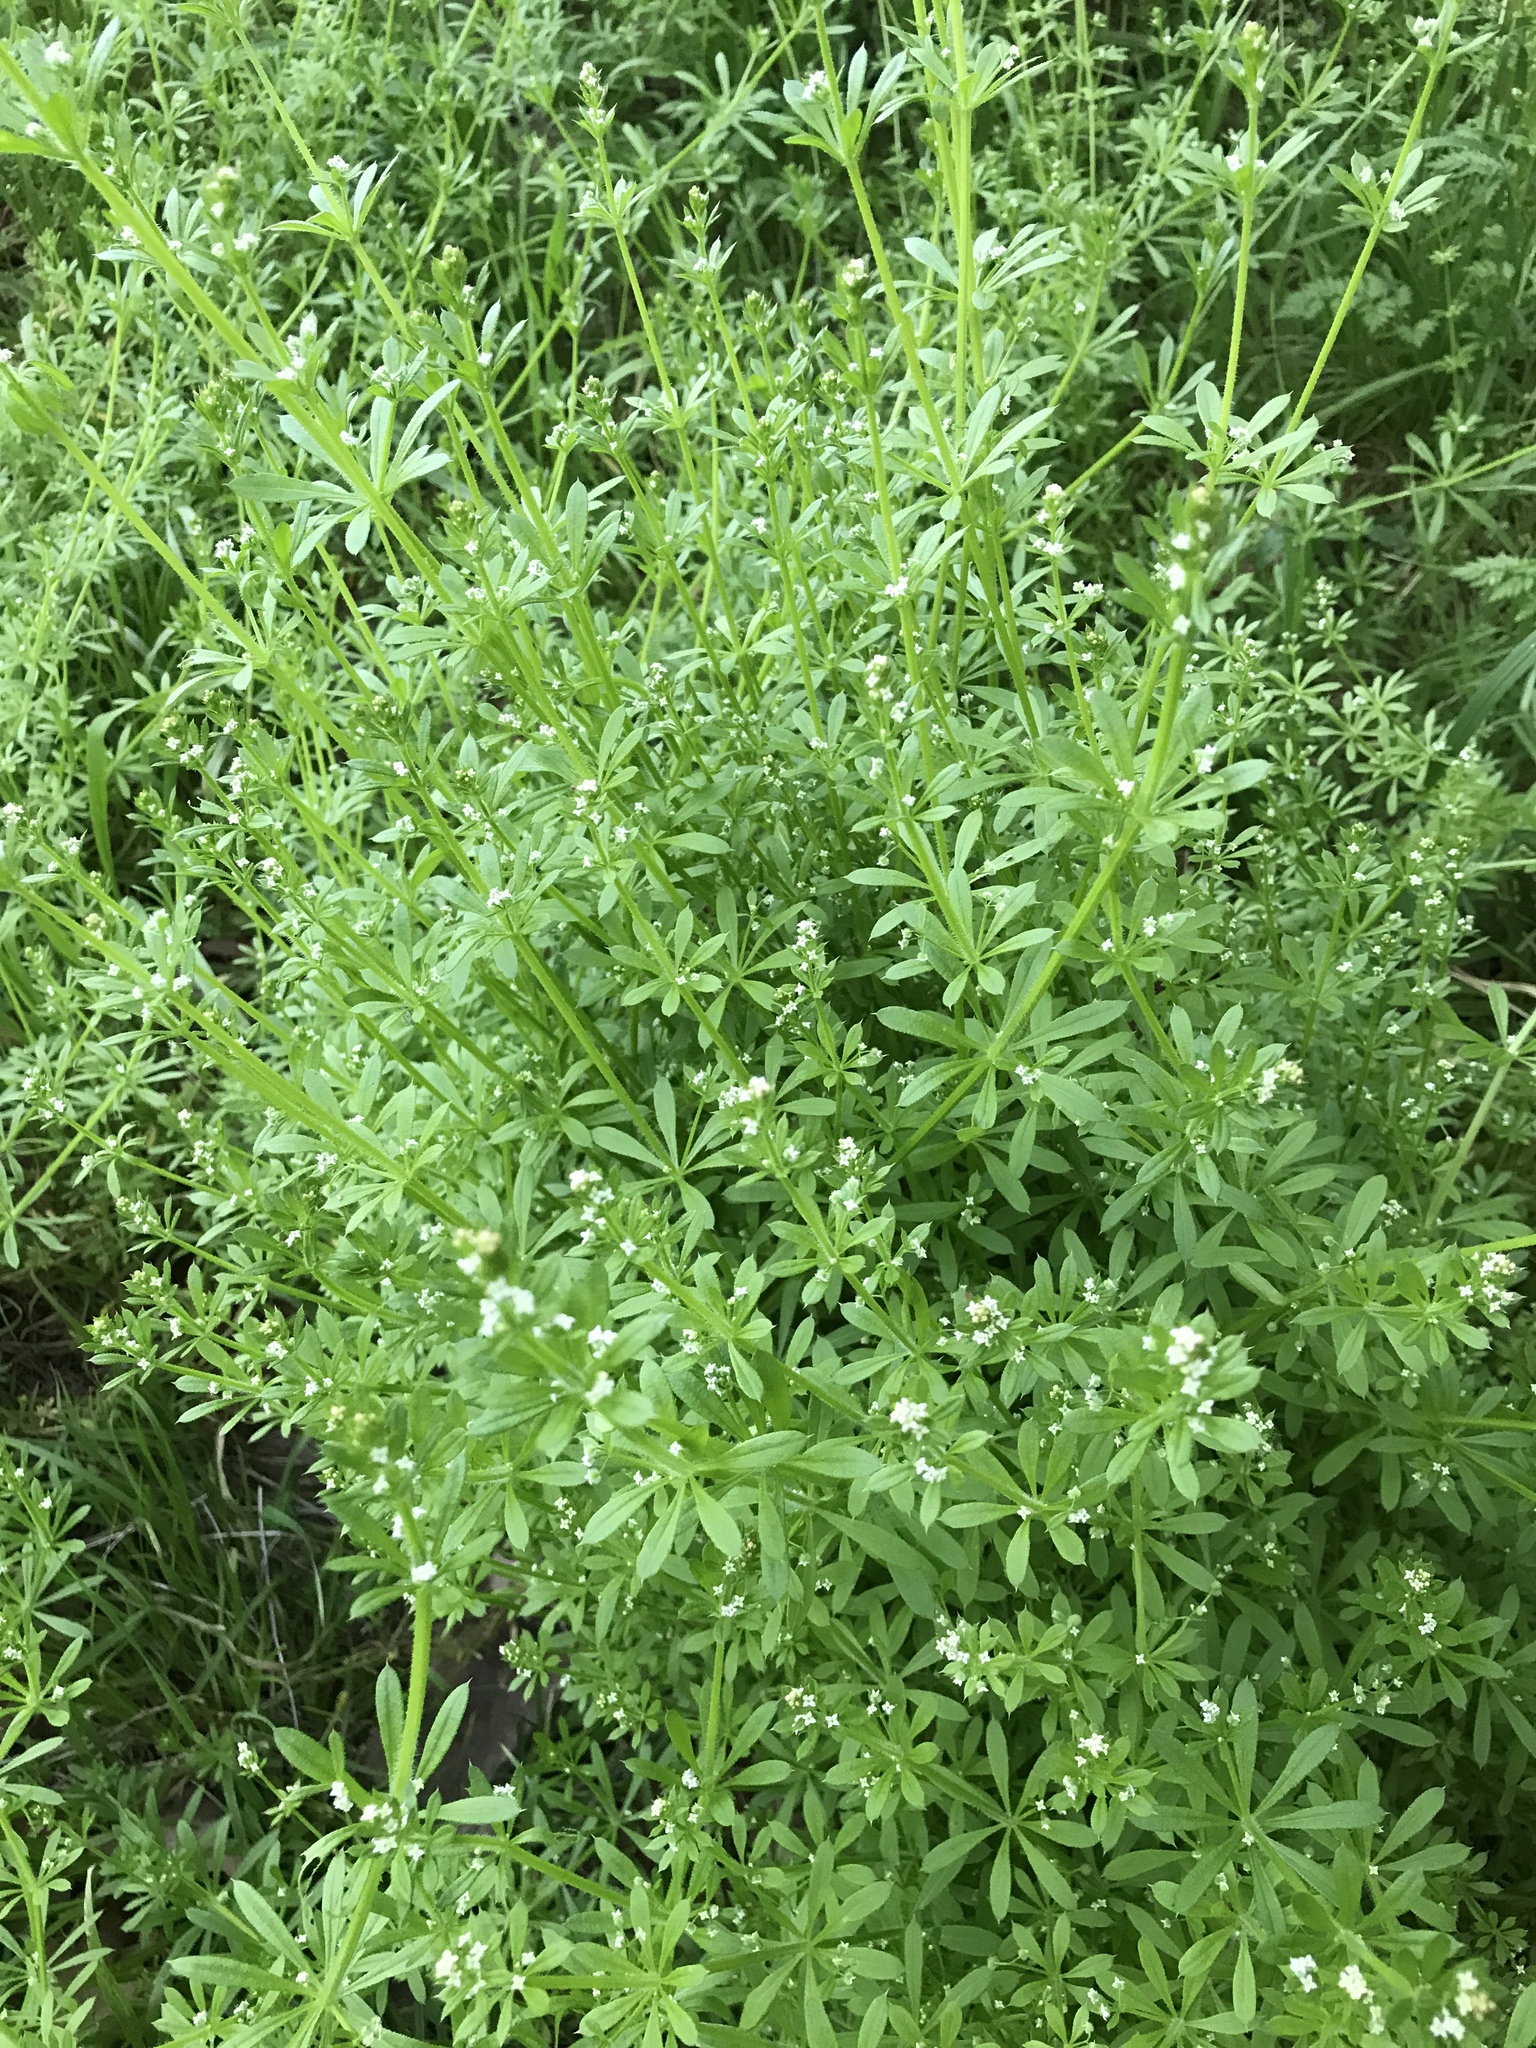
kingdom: Plantae
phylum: Tracheophyta
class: Magnoliopsida
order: Gentianales
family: Rubiaceae
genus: Galium
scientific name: Galium aparine
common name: Cleavers
